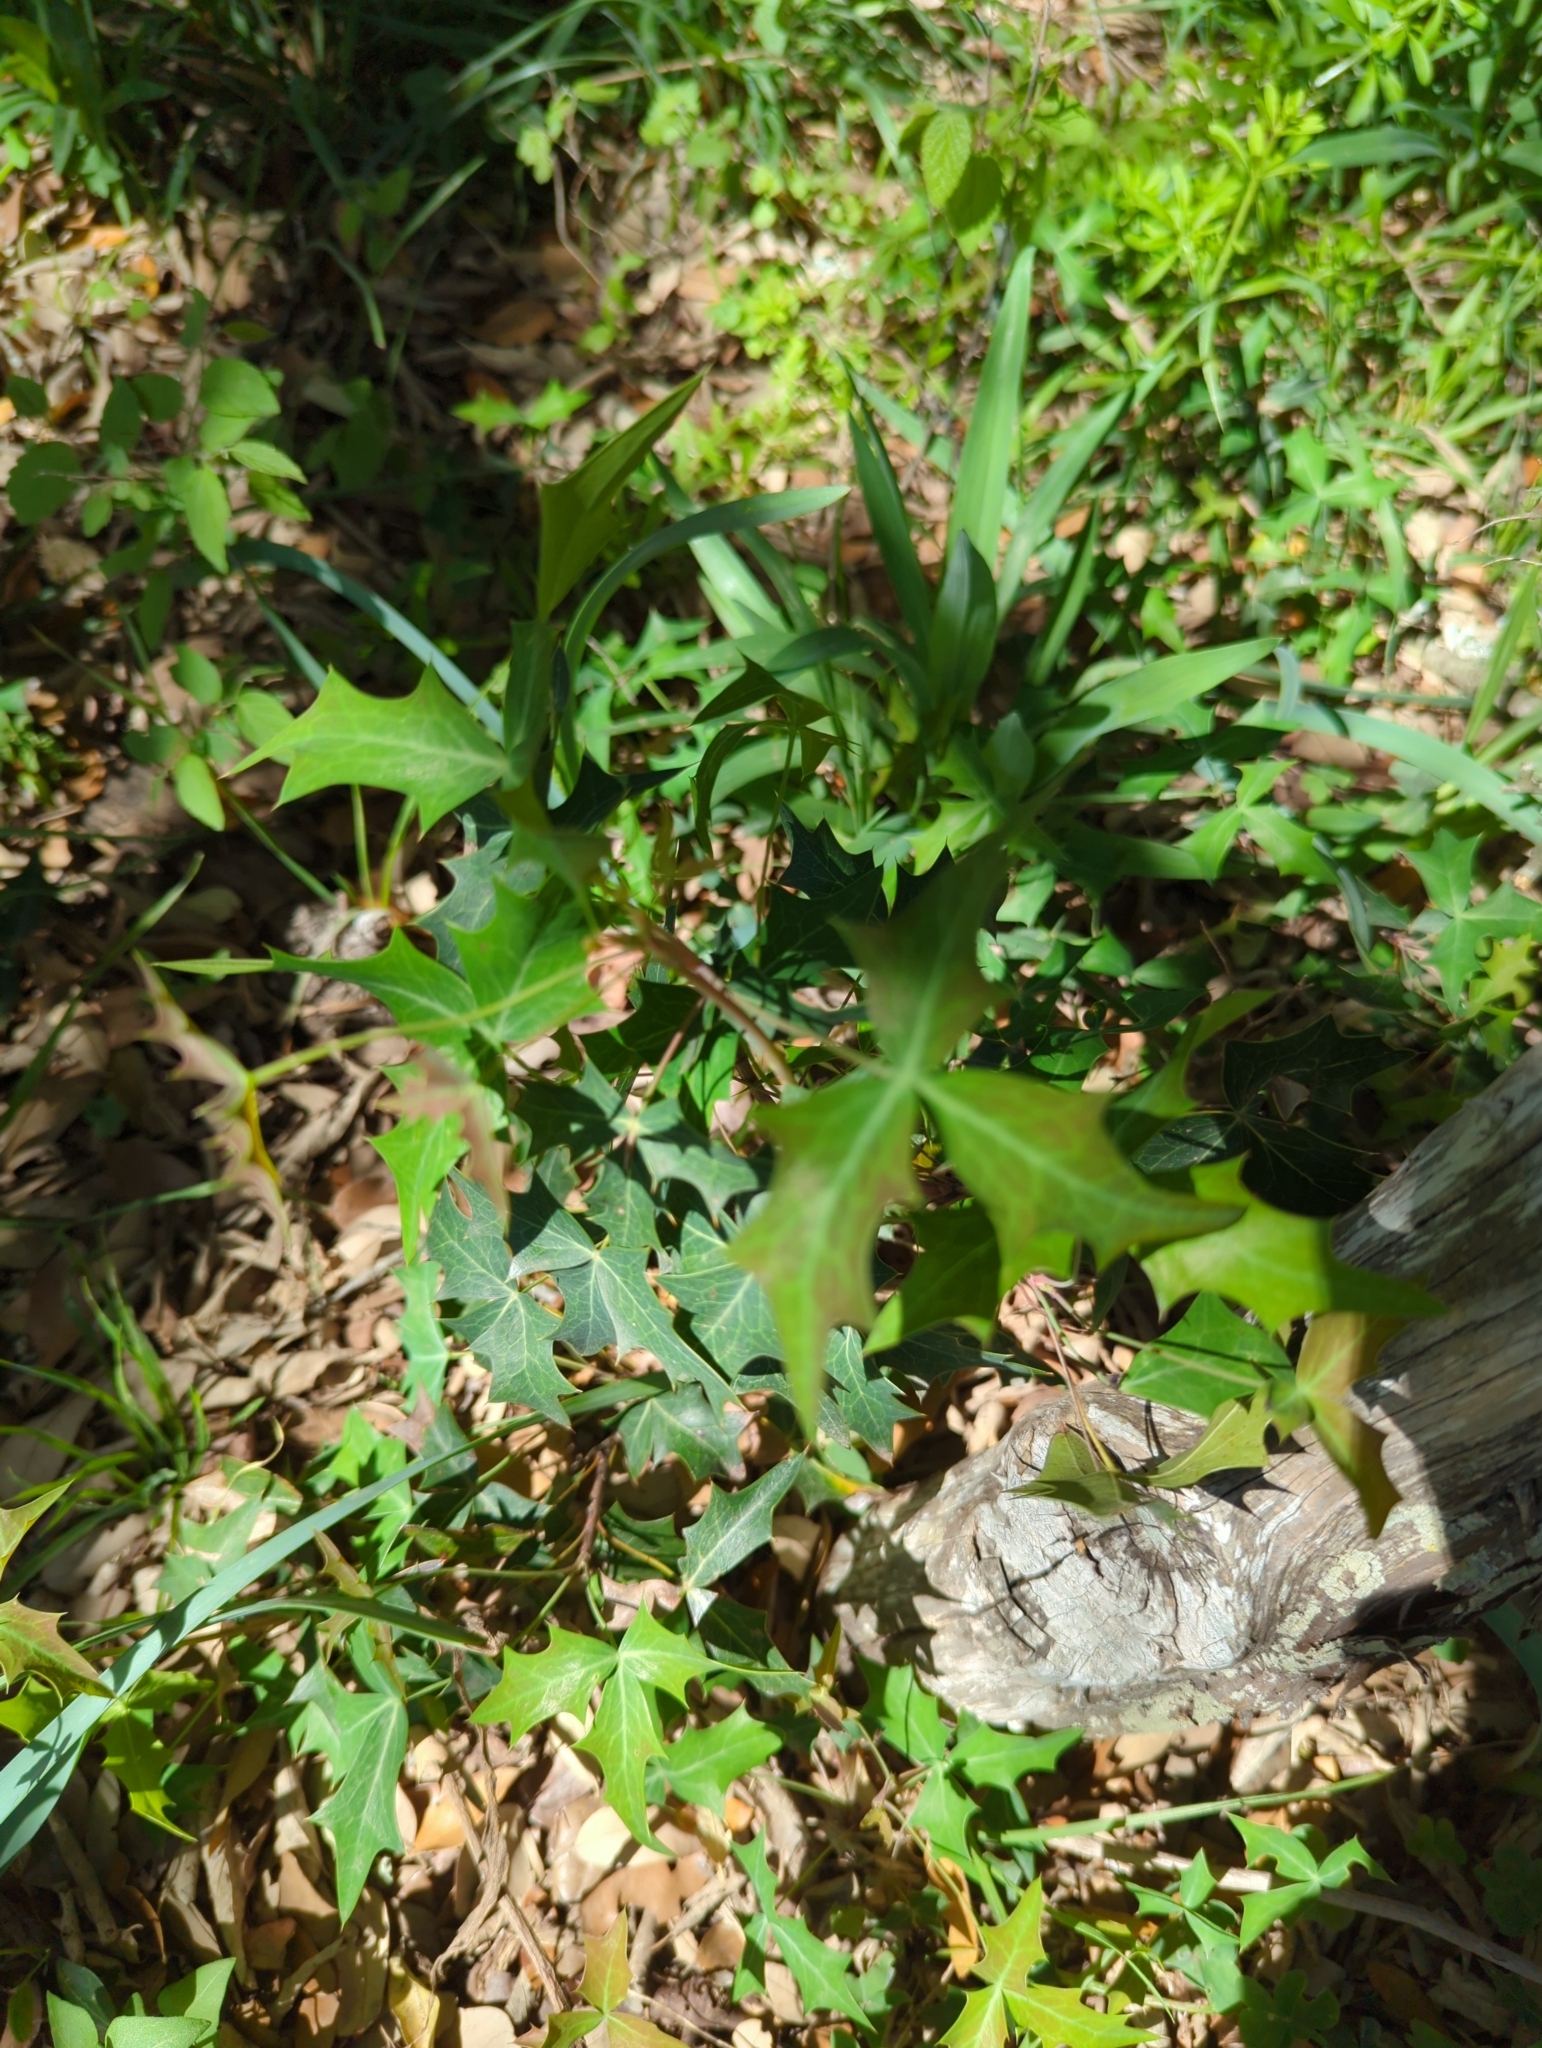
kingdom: Plantae
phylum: Tracheophyta
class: Magnoliopsida
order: Ranunculales
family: Berberidaceae
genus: Alloberberis
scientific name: Alloberberis trifoliolata
